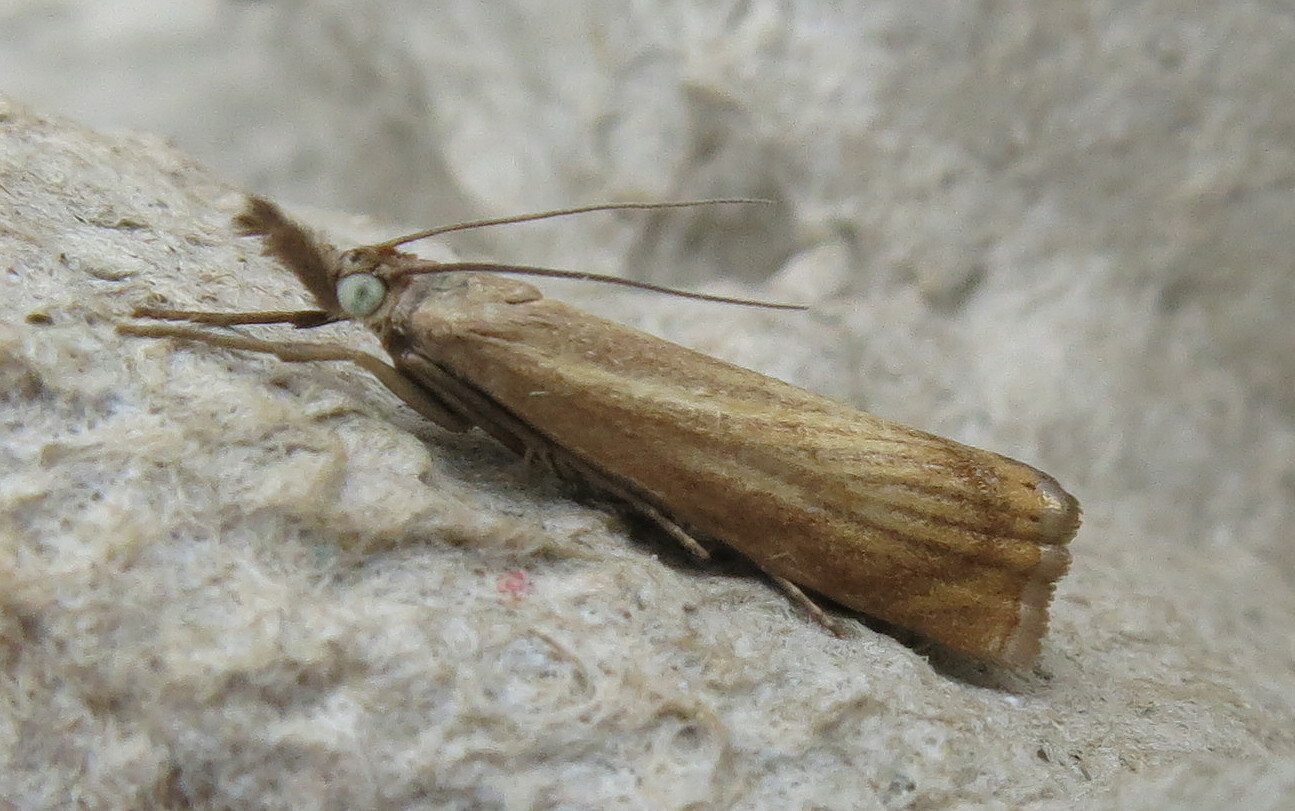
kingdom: Animalia
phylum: Arthropoda
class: Insecta
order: Lepidoptera
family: Crambidae
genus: Chrysoteuchia
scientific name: Chrysoteuchia culmella
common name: Garden grass-veneer
